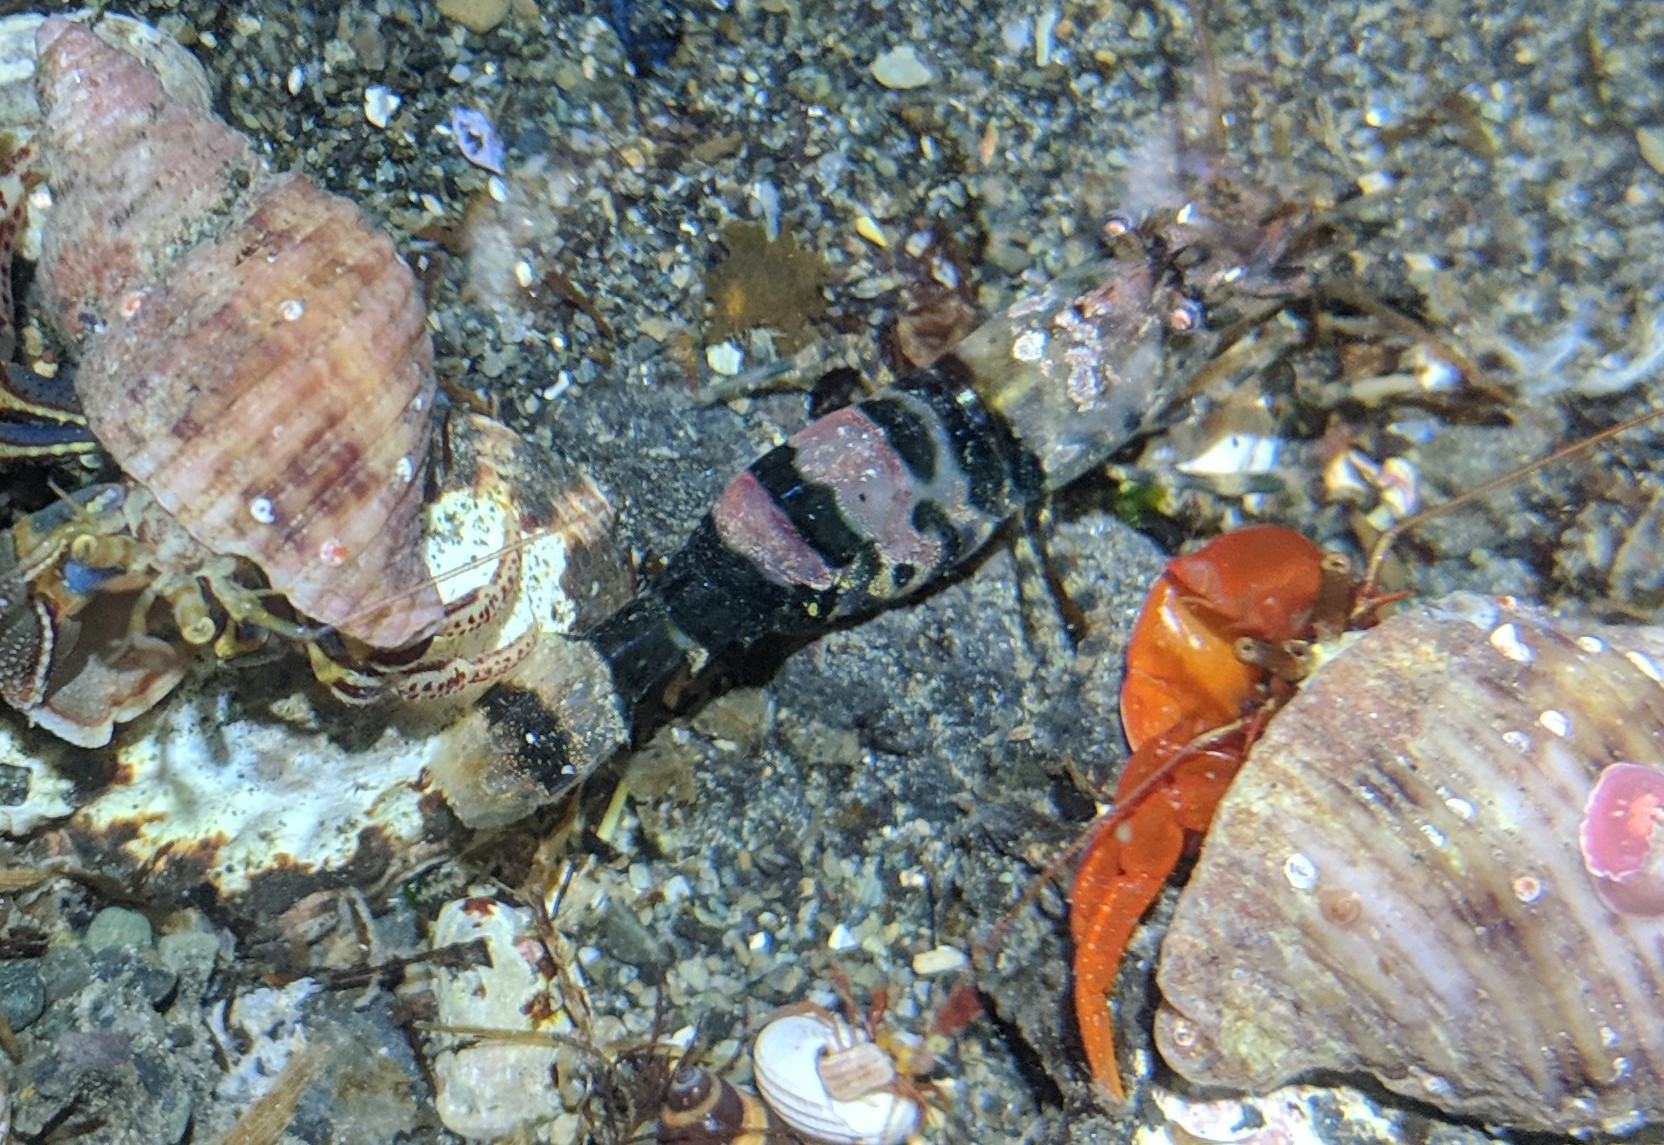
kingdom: Animalia
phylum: Arthropoda
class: Malacostraca
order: Decapoda
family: Thoridae
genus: Heptacarpus
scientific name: Heptacarpus brevirostris
